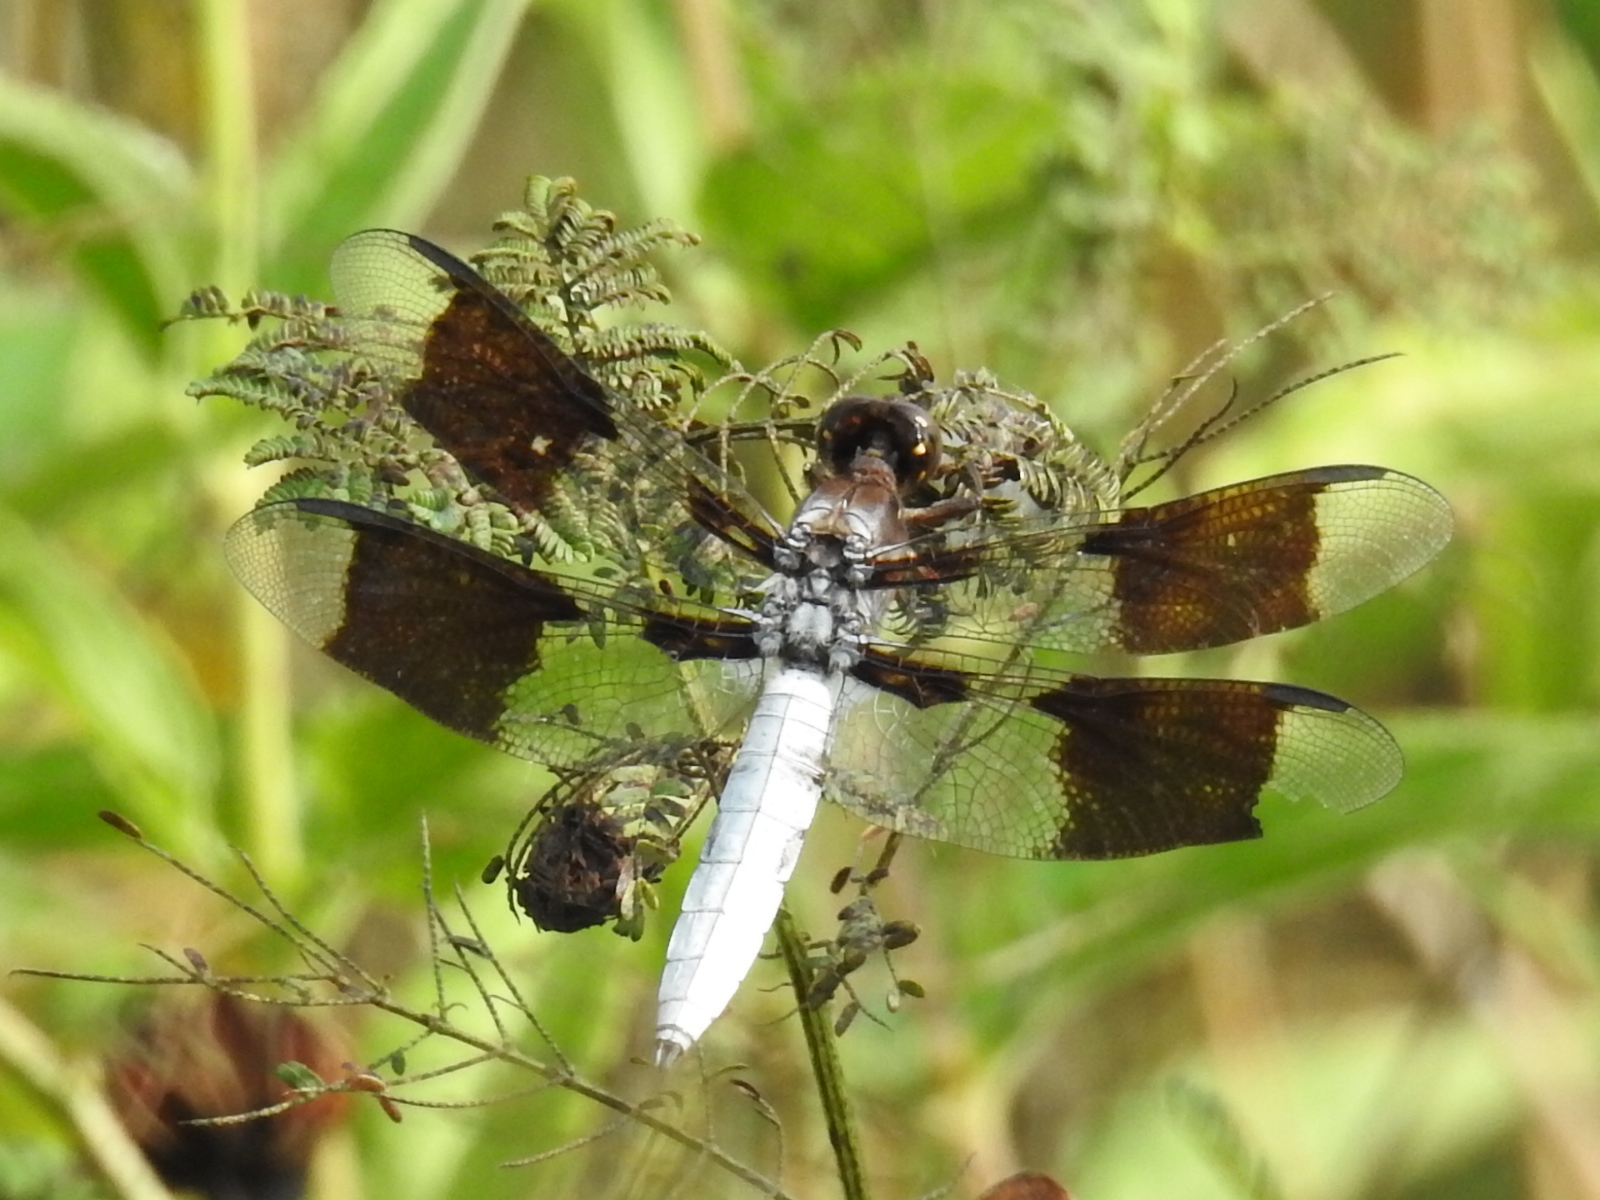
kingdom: Animalia
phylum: Arthropoda
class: Insecta
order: Odonata
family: Libellulidae
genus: Plathemis
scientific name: Plathemis lydia
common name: Common whitetail
